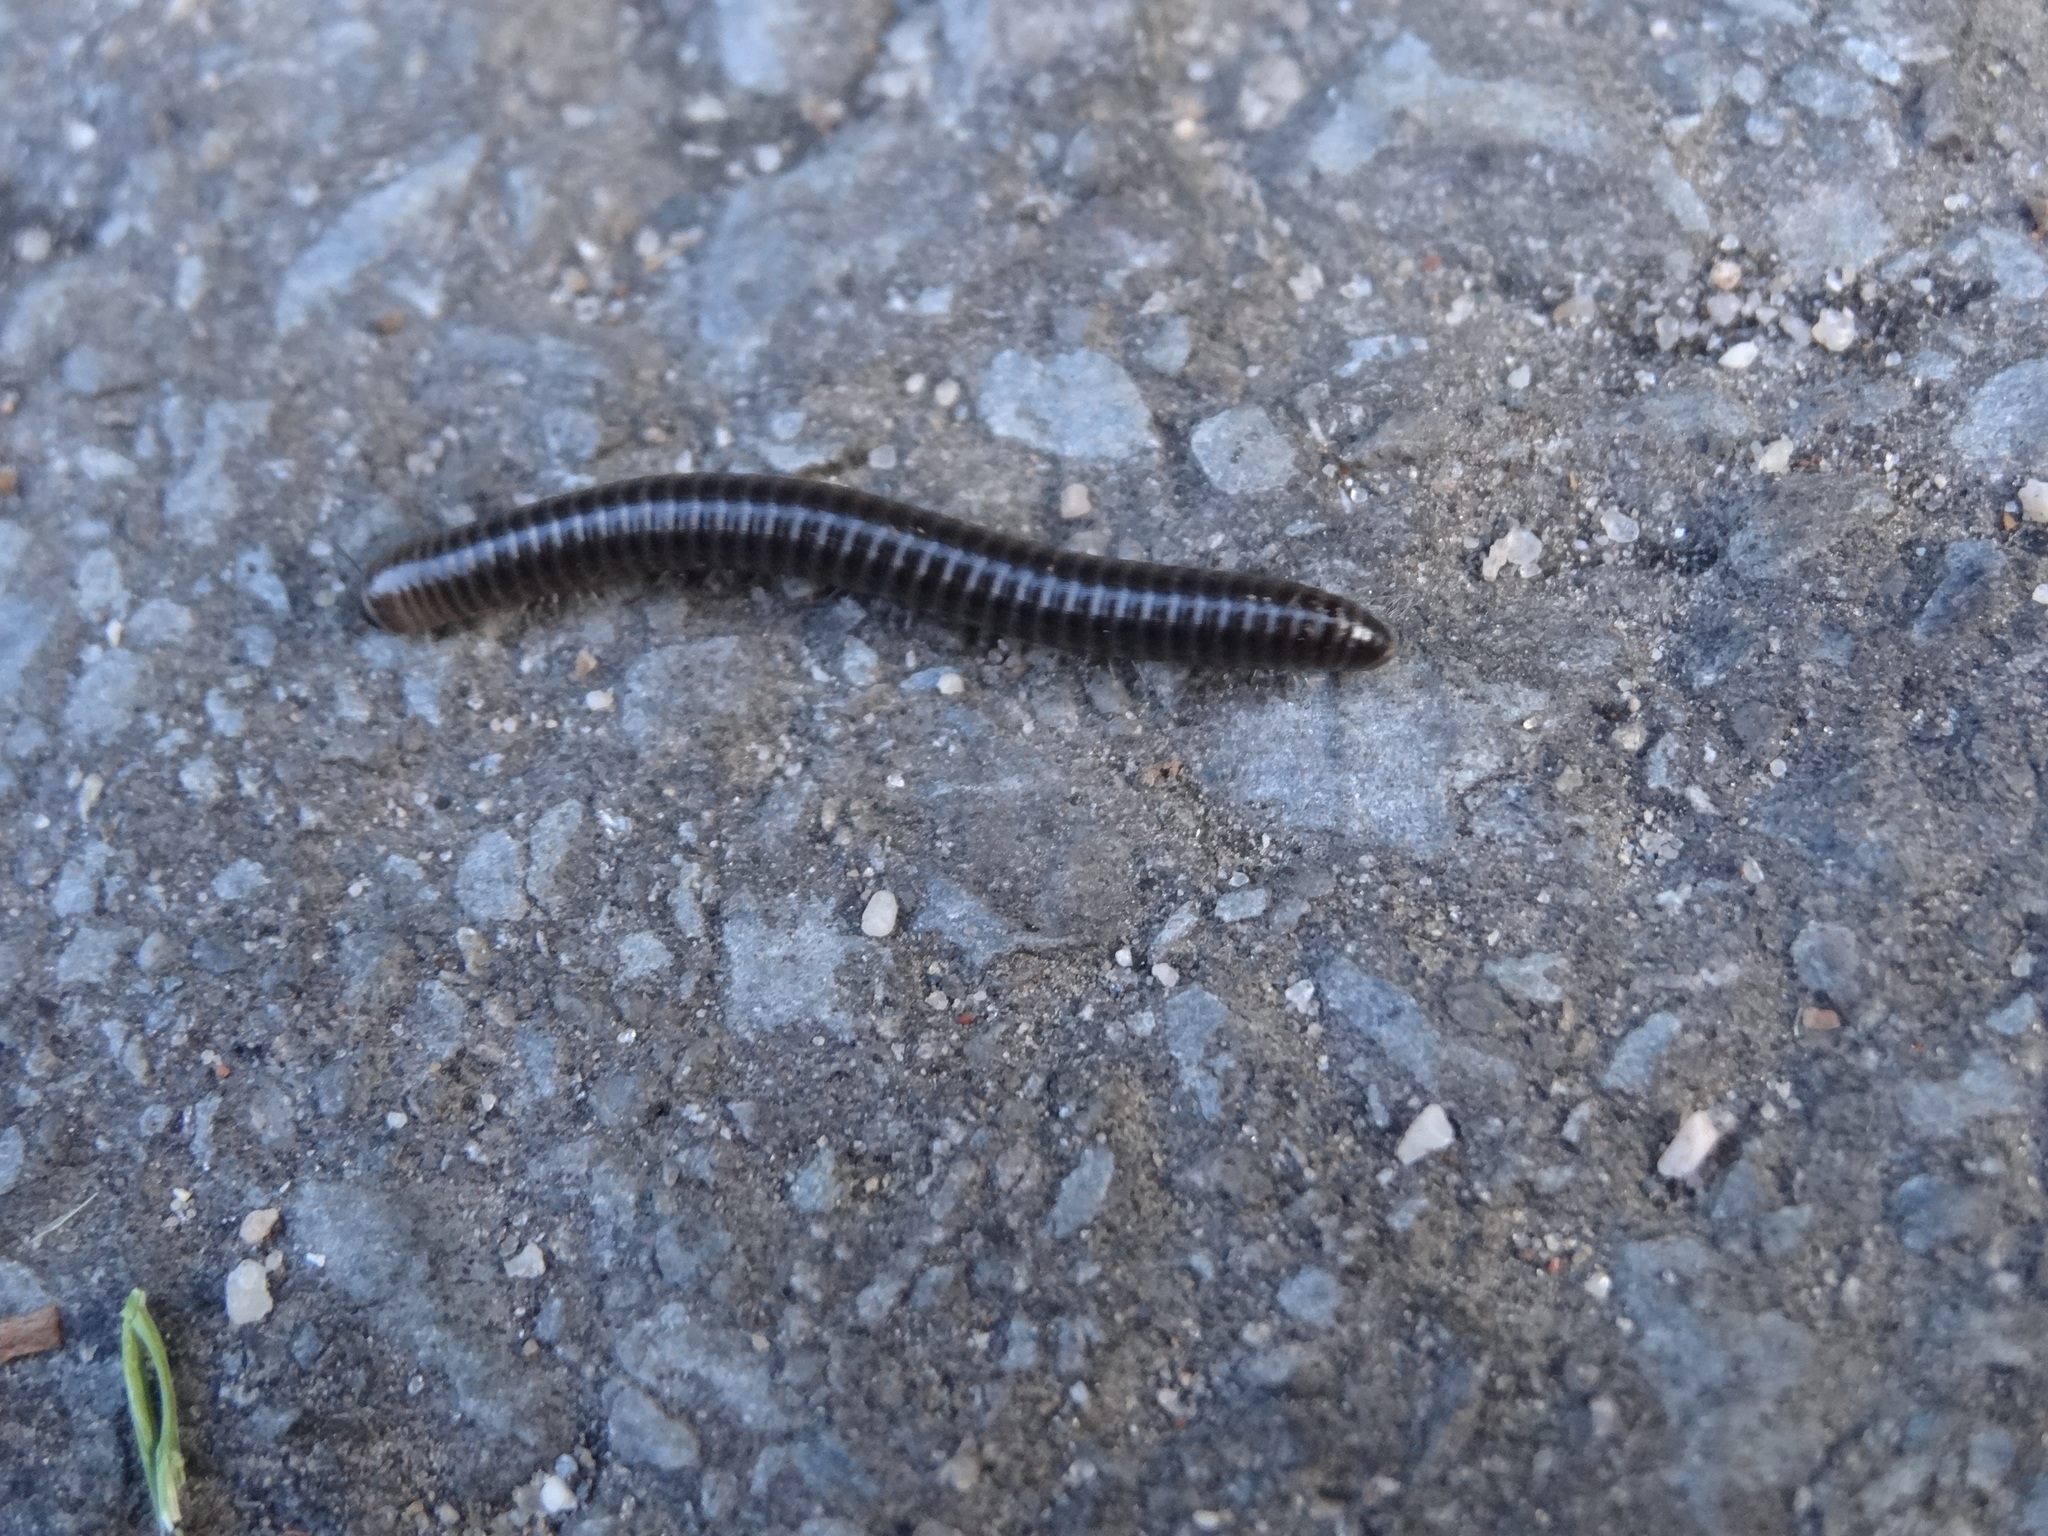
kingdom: Animalia
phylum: Arthropoda
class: Diplopoda
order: Julida
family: Julidae
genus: Cylindroiulus
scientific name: Cylindroiulus caeruleocinctus
